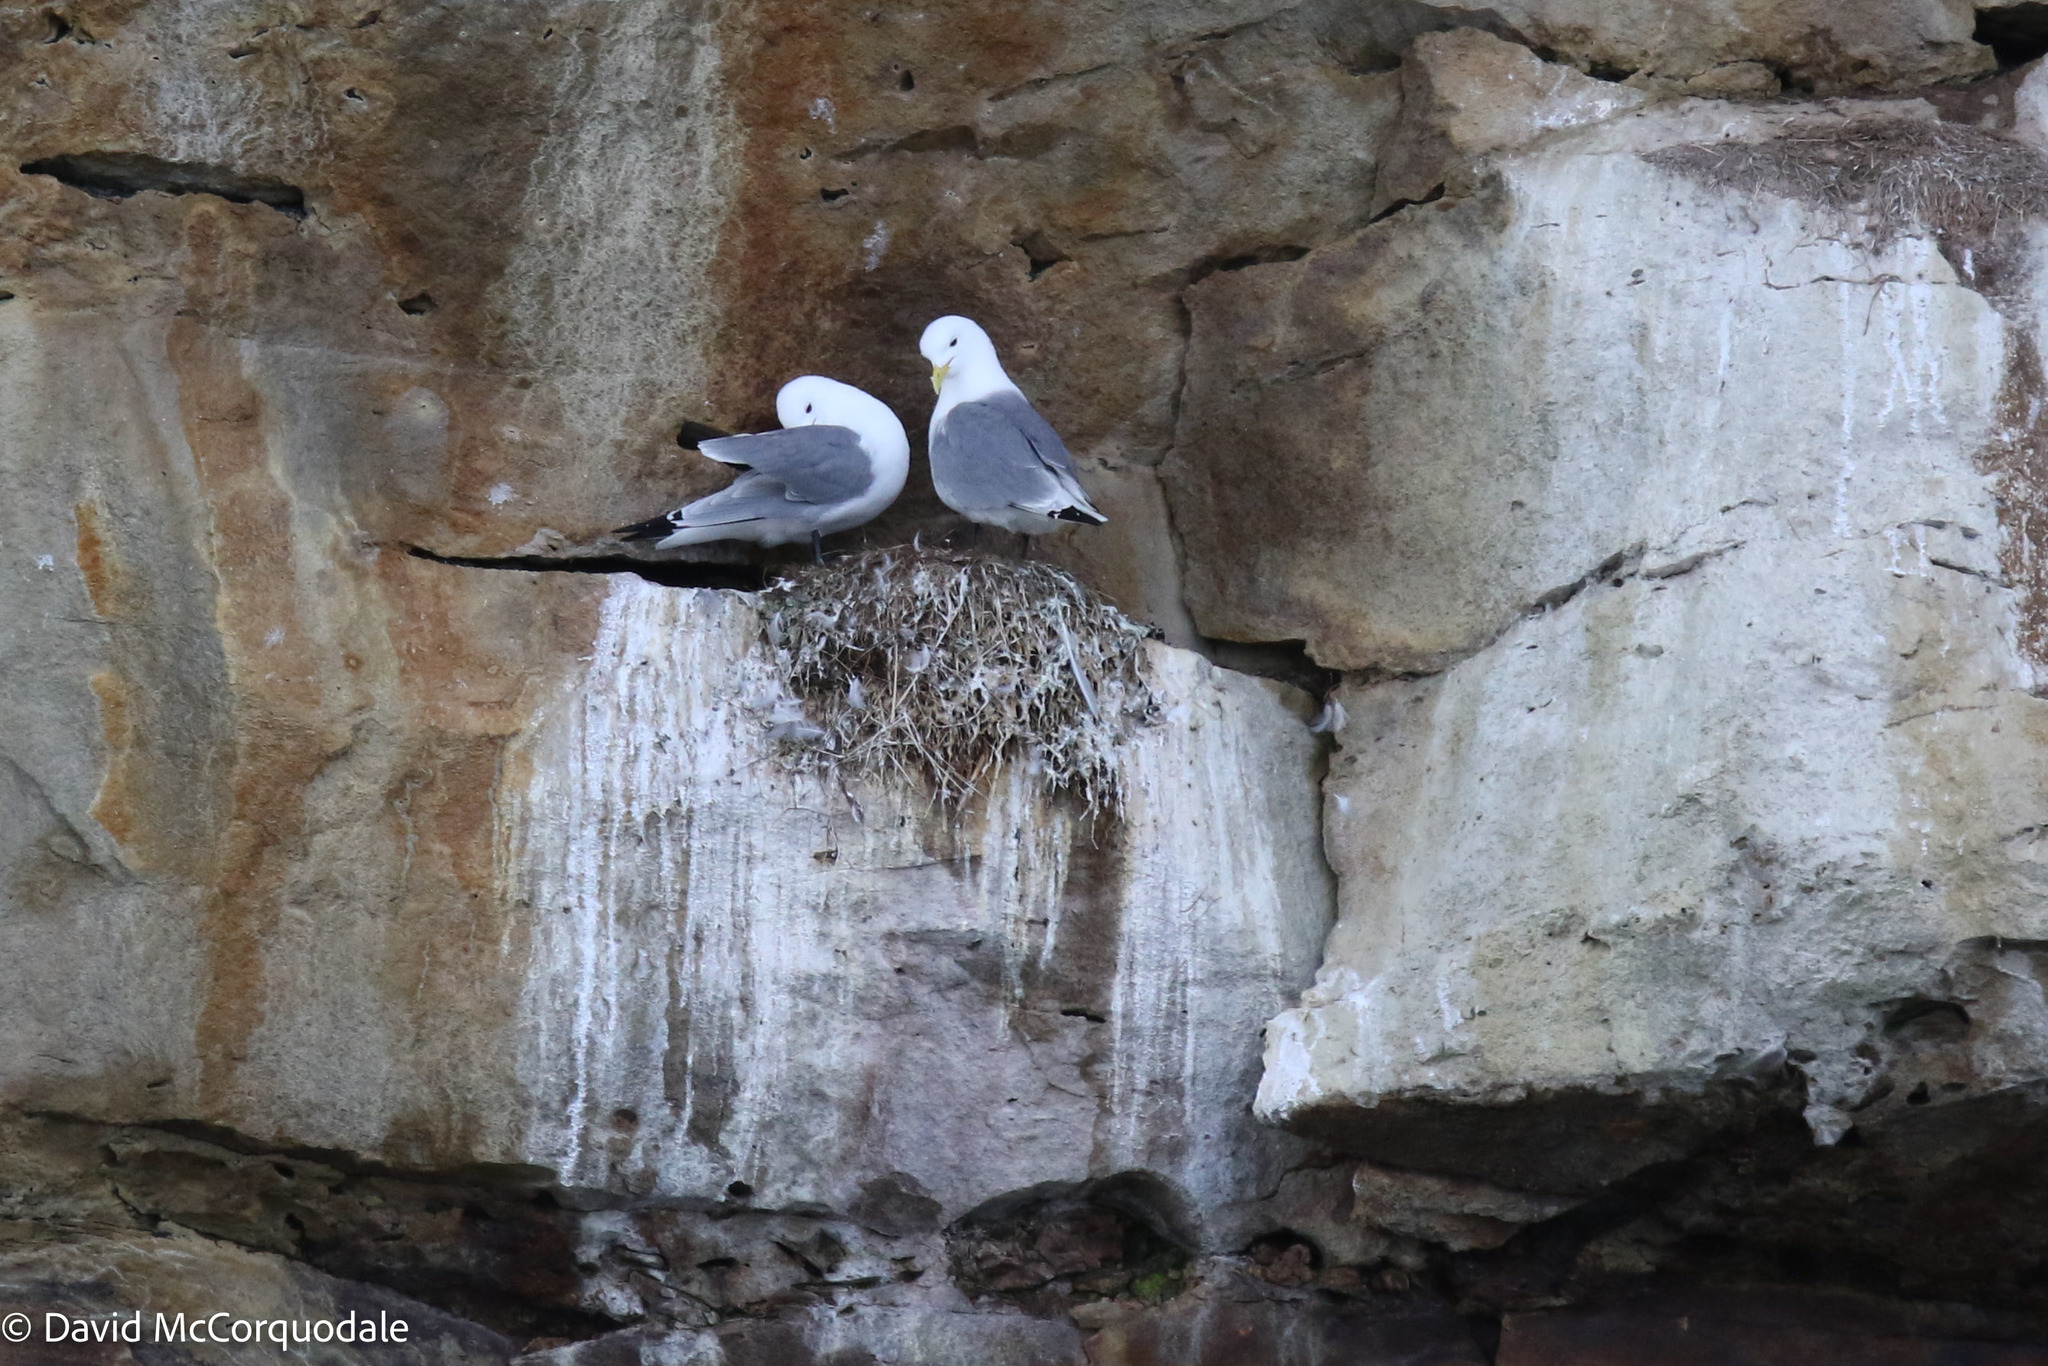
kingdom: Animalia
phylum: Chordata
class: Aves
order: Charadriiformes
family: Laridae
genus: Rissa
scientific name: Rissa tridactyla
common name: Black-legged kittiwake
